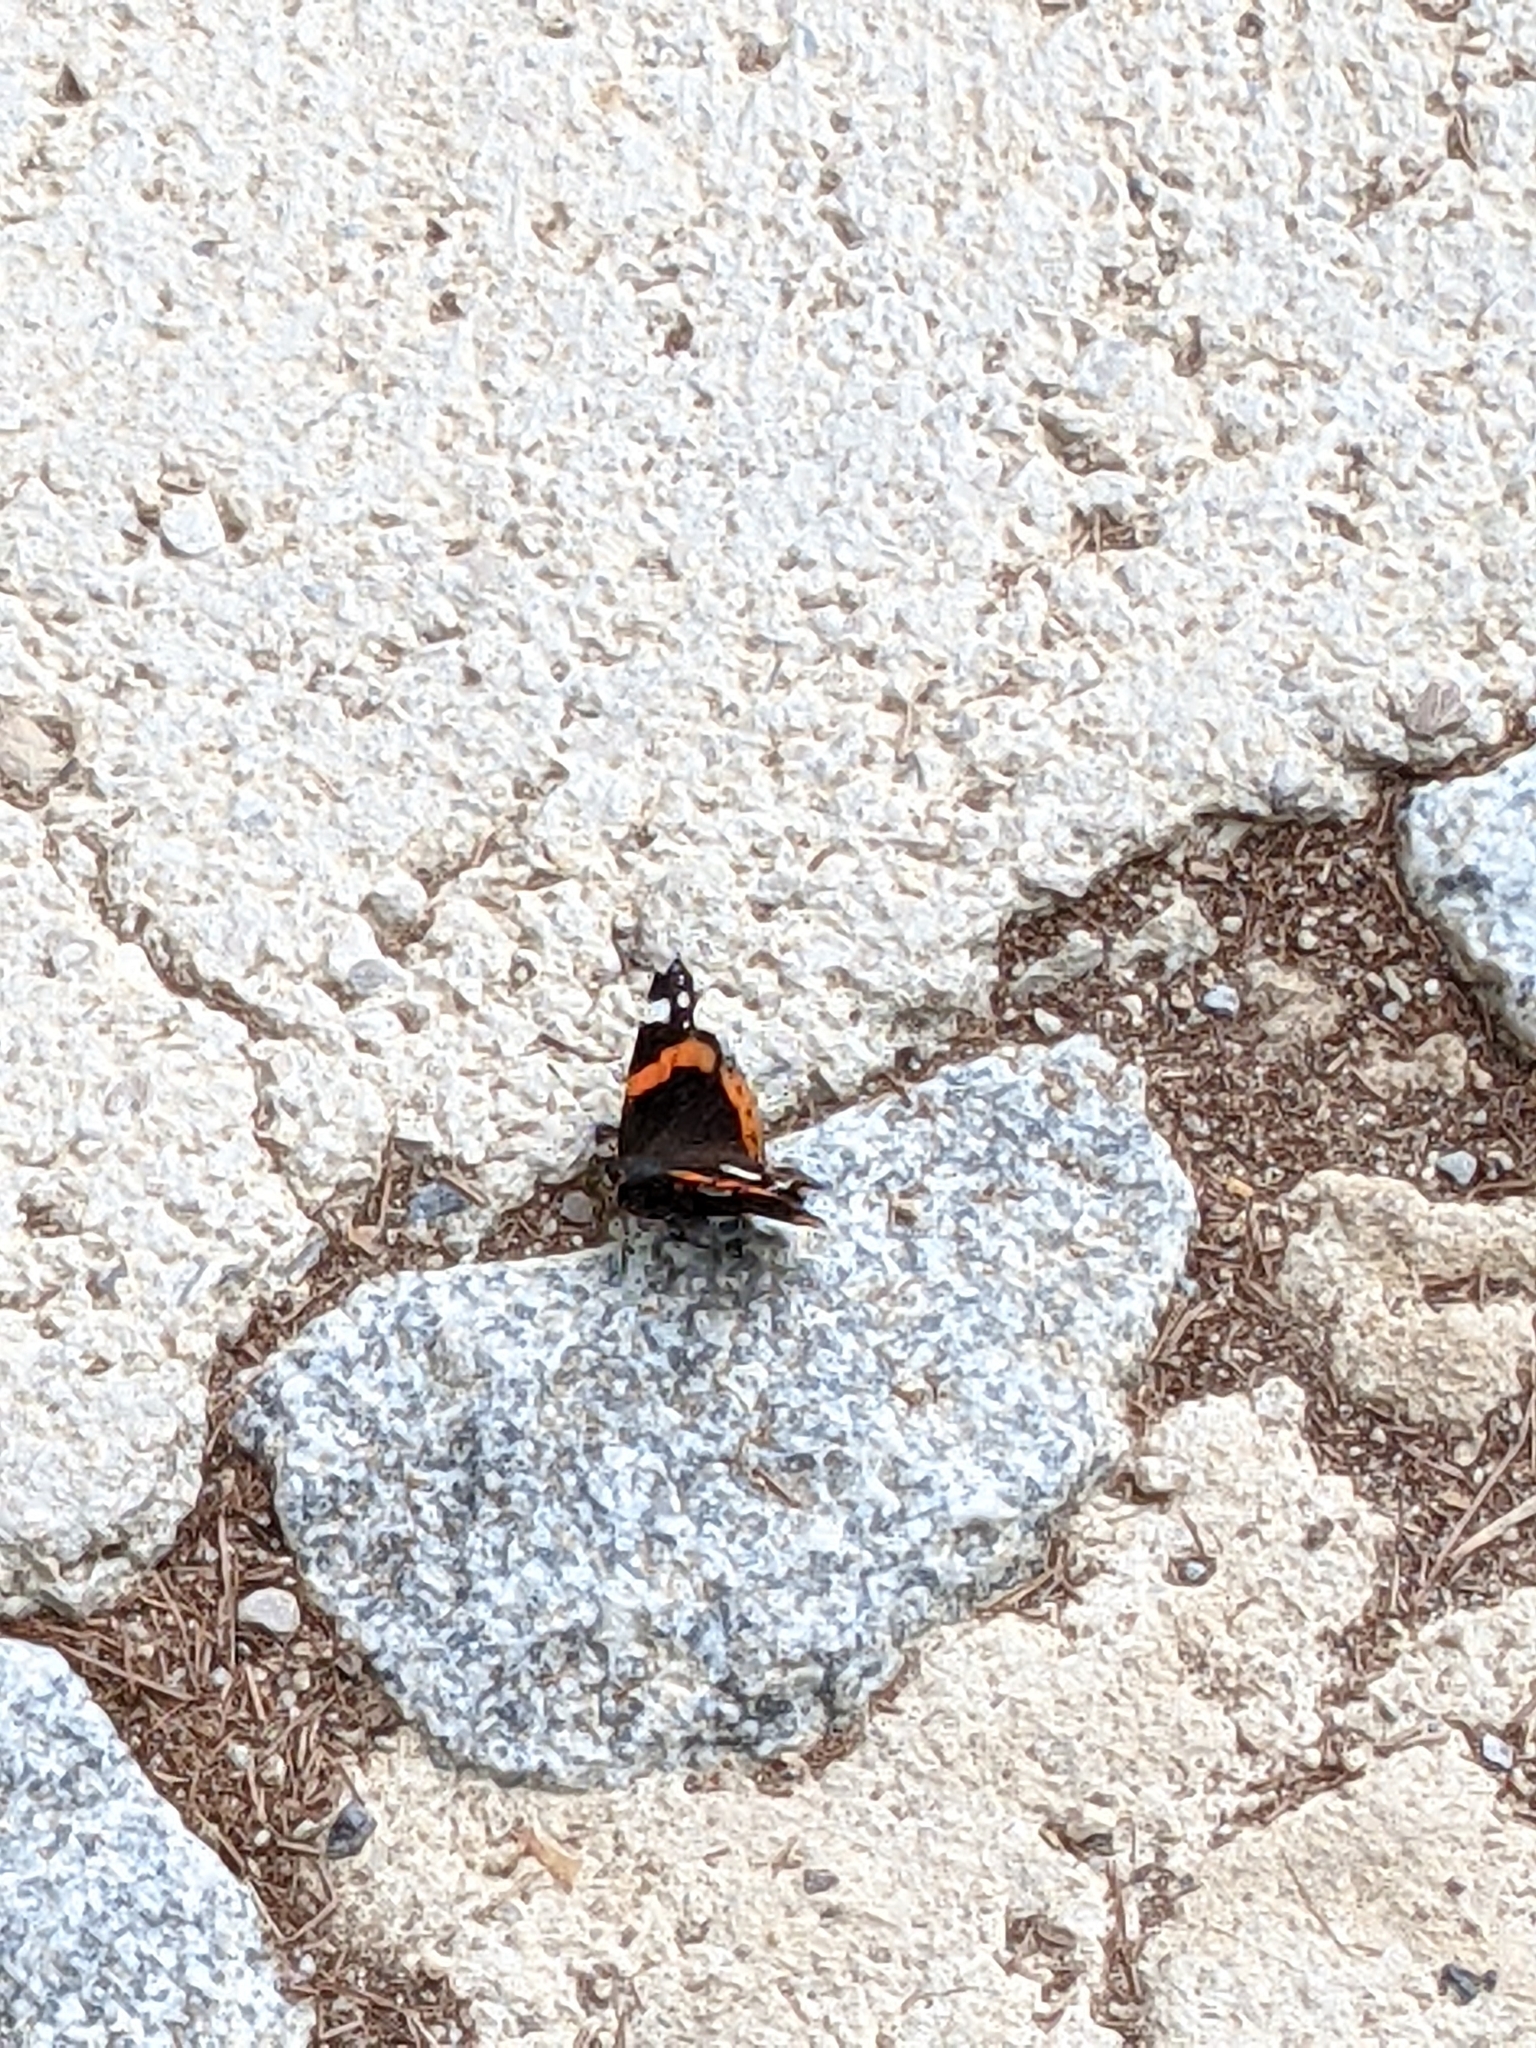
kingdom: Animalia
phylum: Arthropoda
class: Insecta
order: Lepidoptera
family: Nymphalidae
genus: Vanessa
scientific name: Vanessa atalanta
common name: Red admiral
